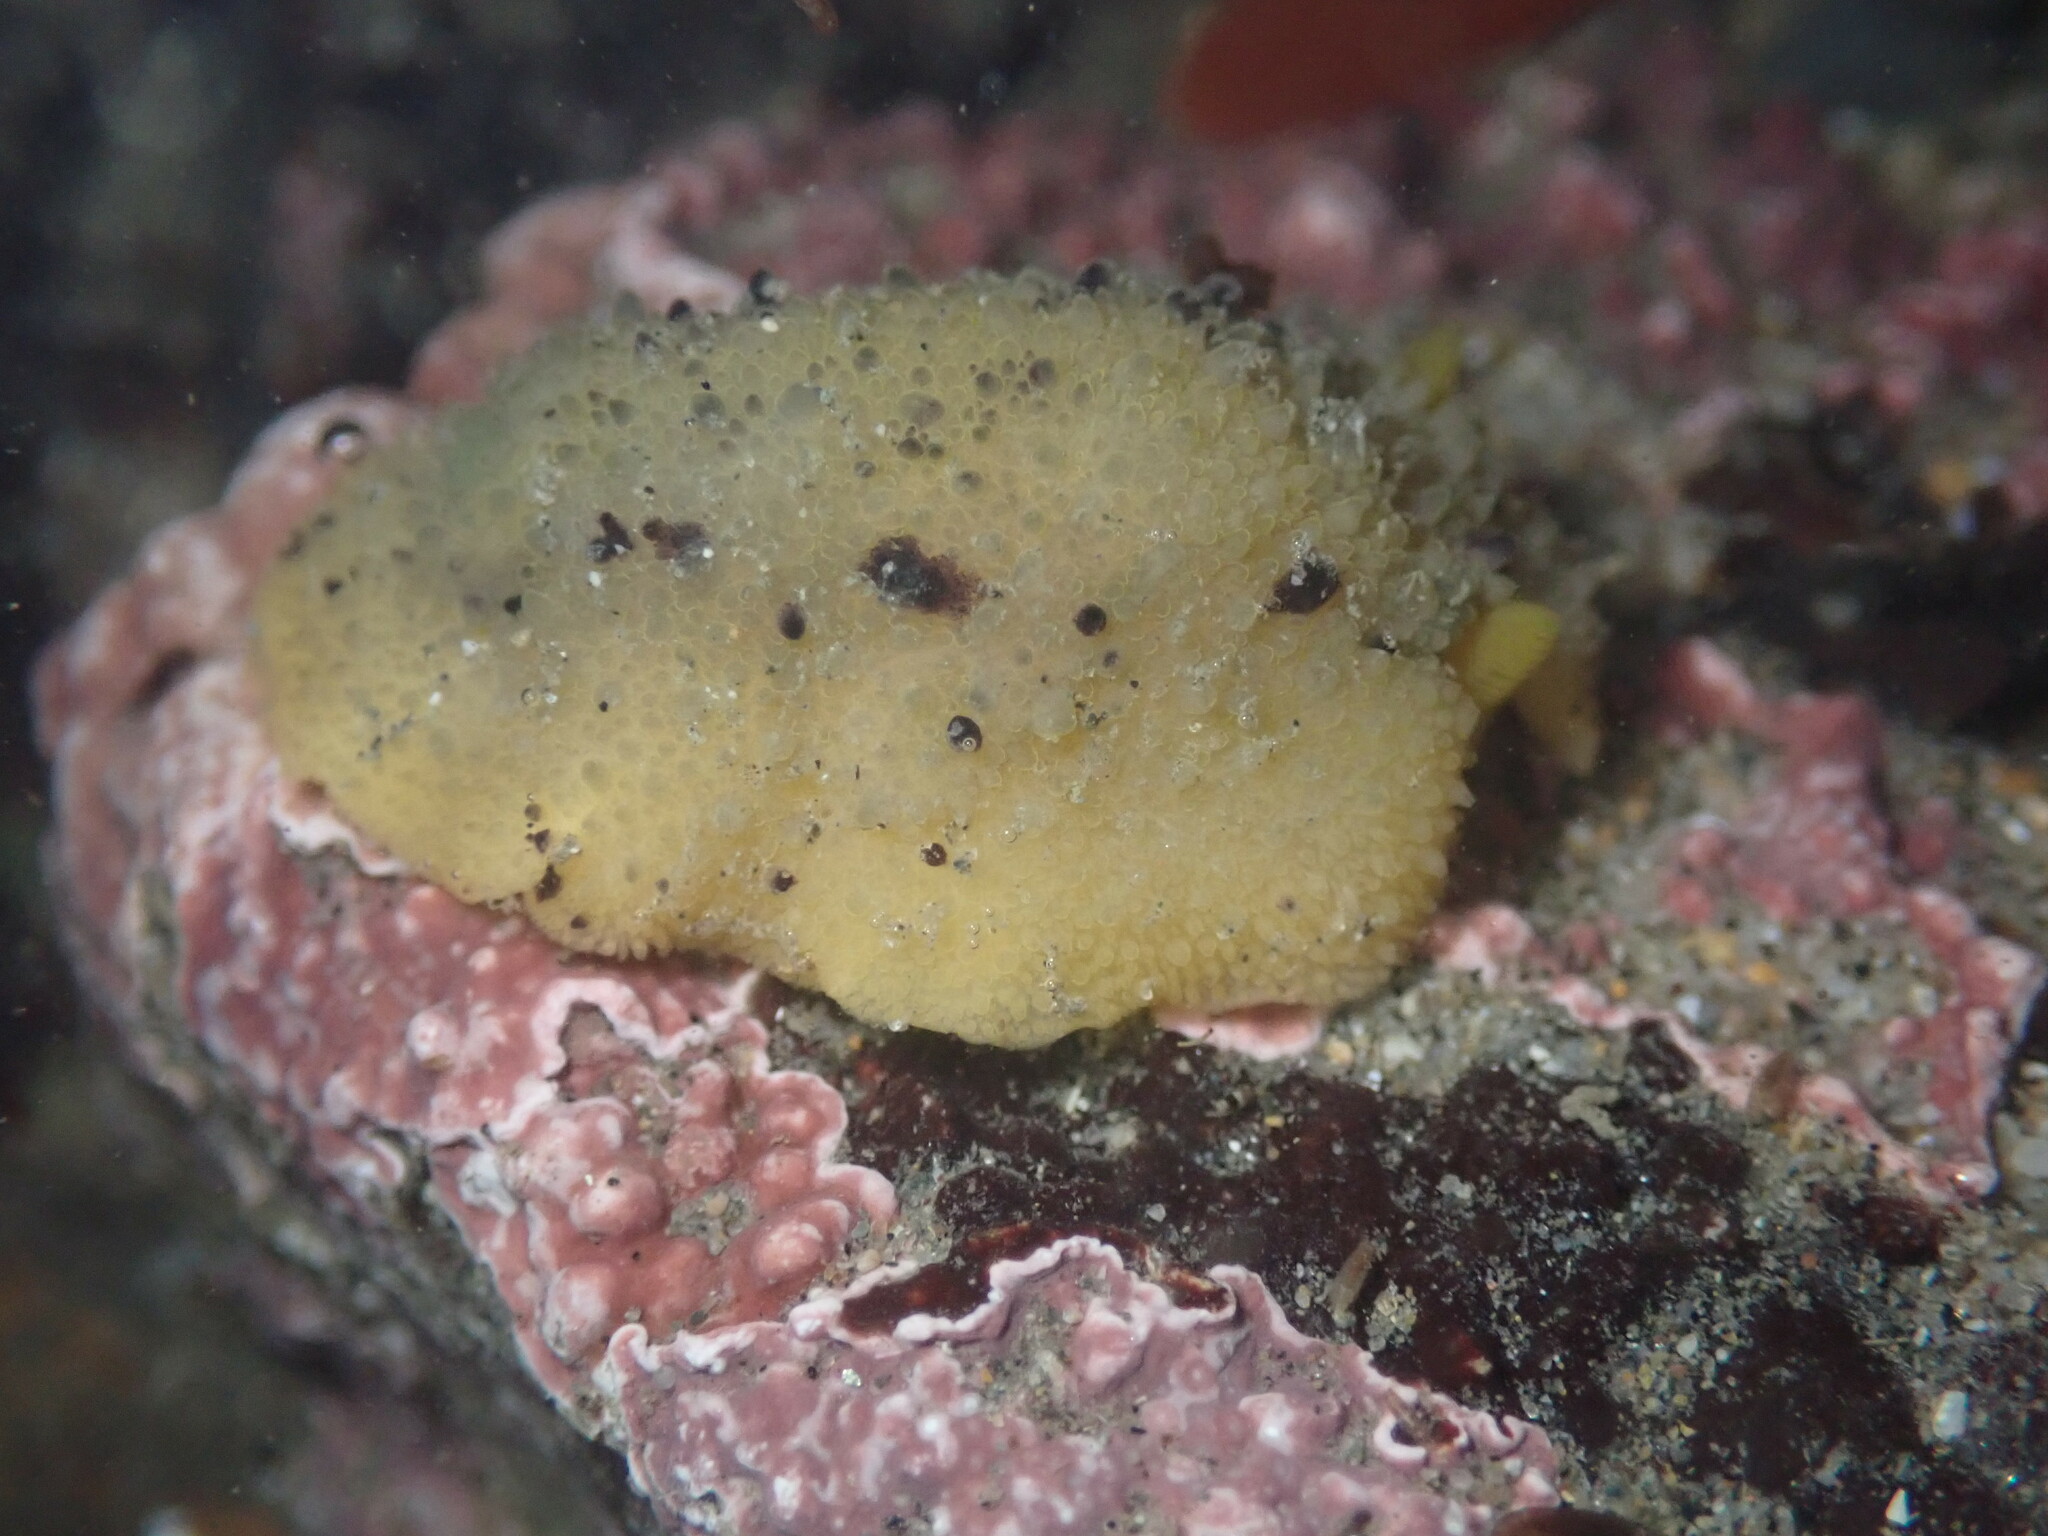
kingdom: Animalia
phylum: Mollusca
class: Gastropoda
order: Nudibranchia
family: Dorididae
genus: Doris
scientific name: Doris montereyensis
